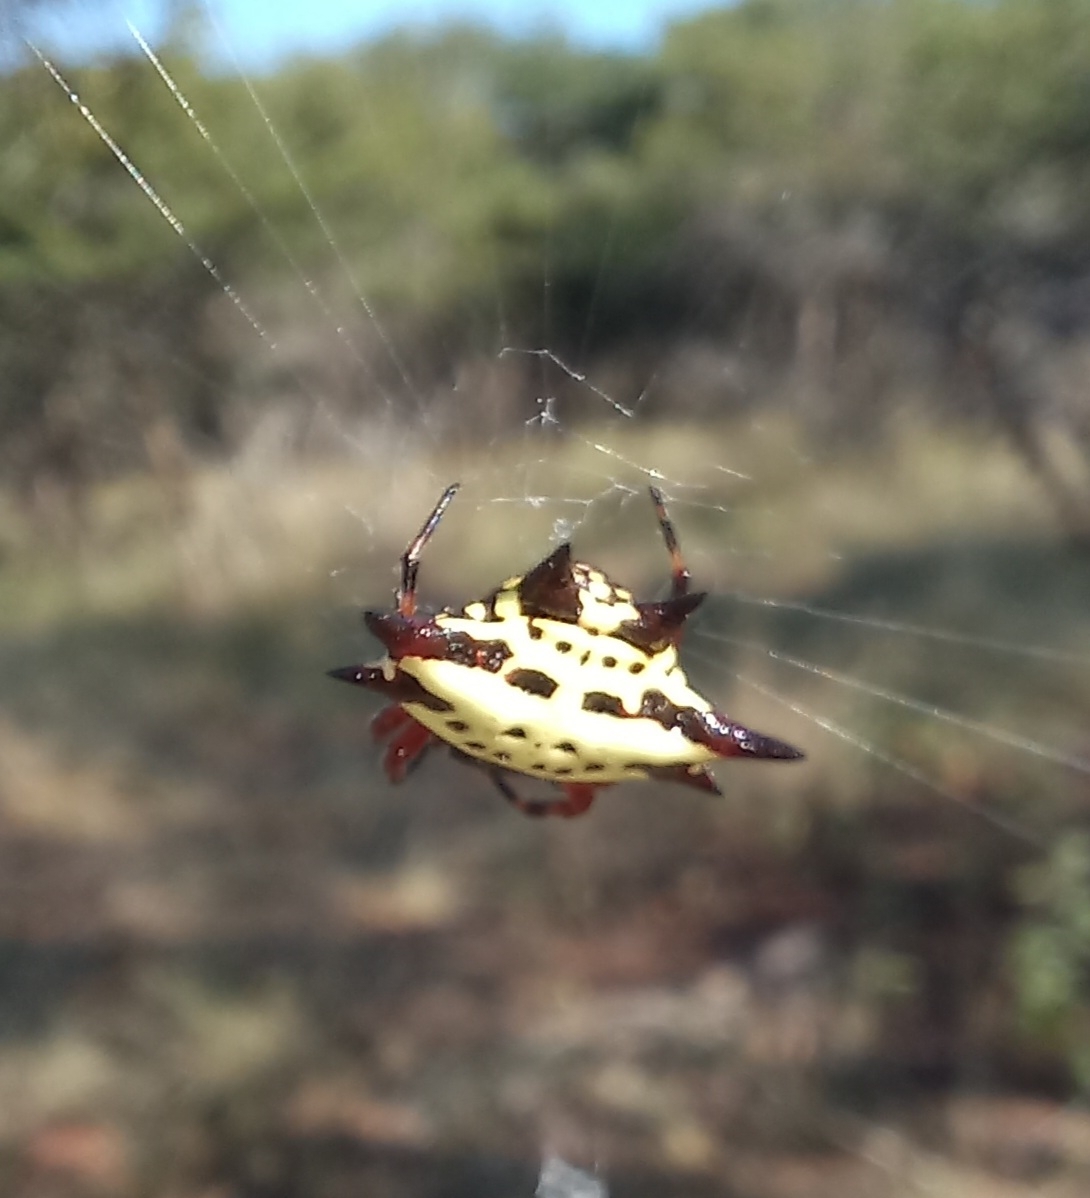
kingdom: Animalia
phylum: Arthropoda
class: Arachnida
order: Araneae
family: Araneidae
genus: Gasteracantha
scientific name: Gasteracantha sanguinolenta
